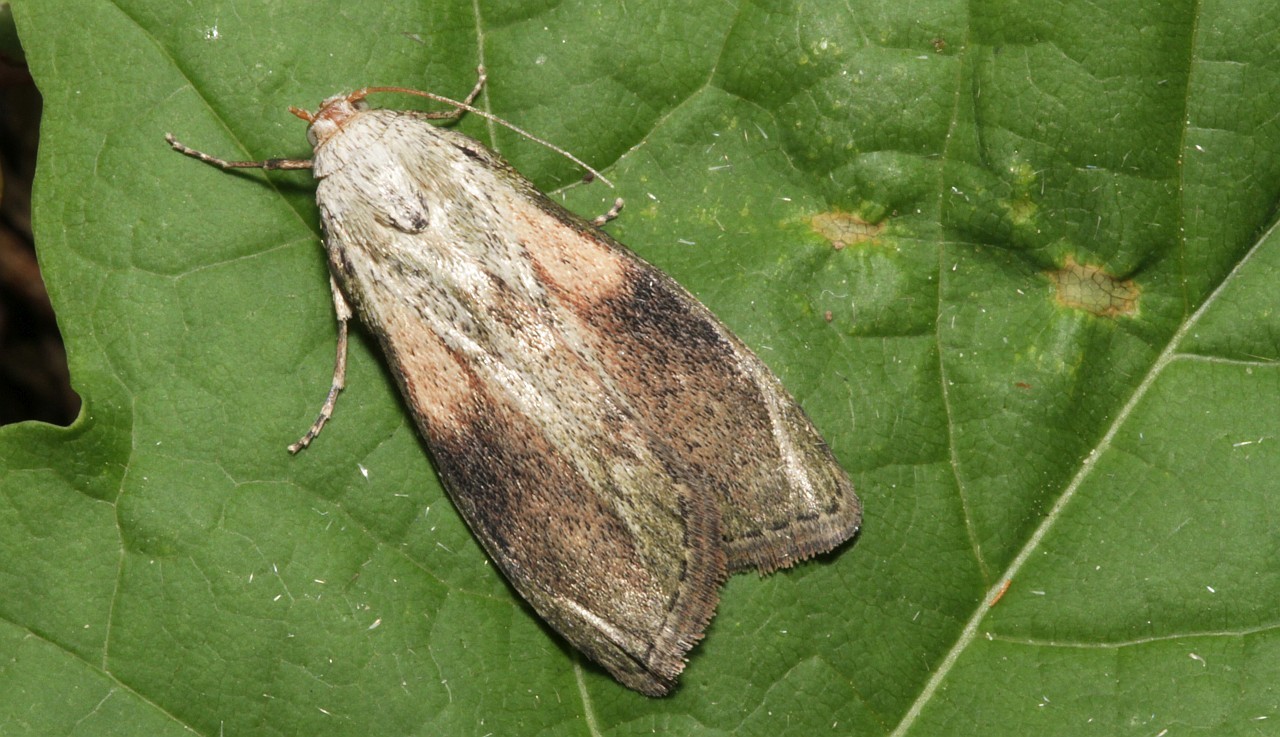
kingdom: Animalia
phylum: Arthropoda
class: Insecta
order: Lepidoptera
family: Pyralidae
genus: Aphomia
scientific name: Aphomia sociella
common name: Bee moth
